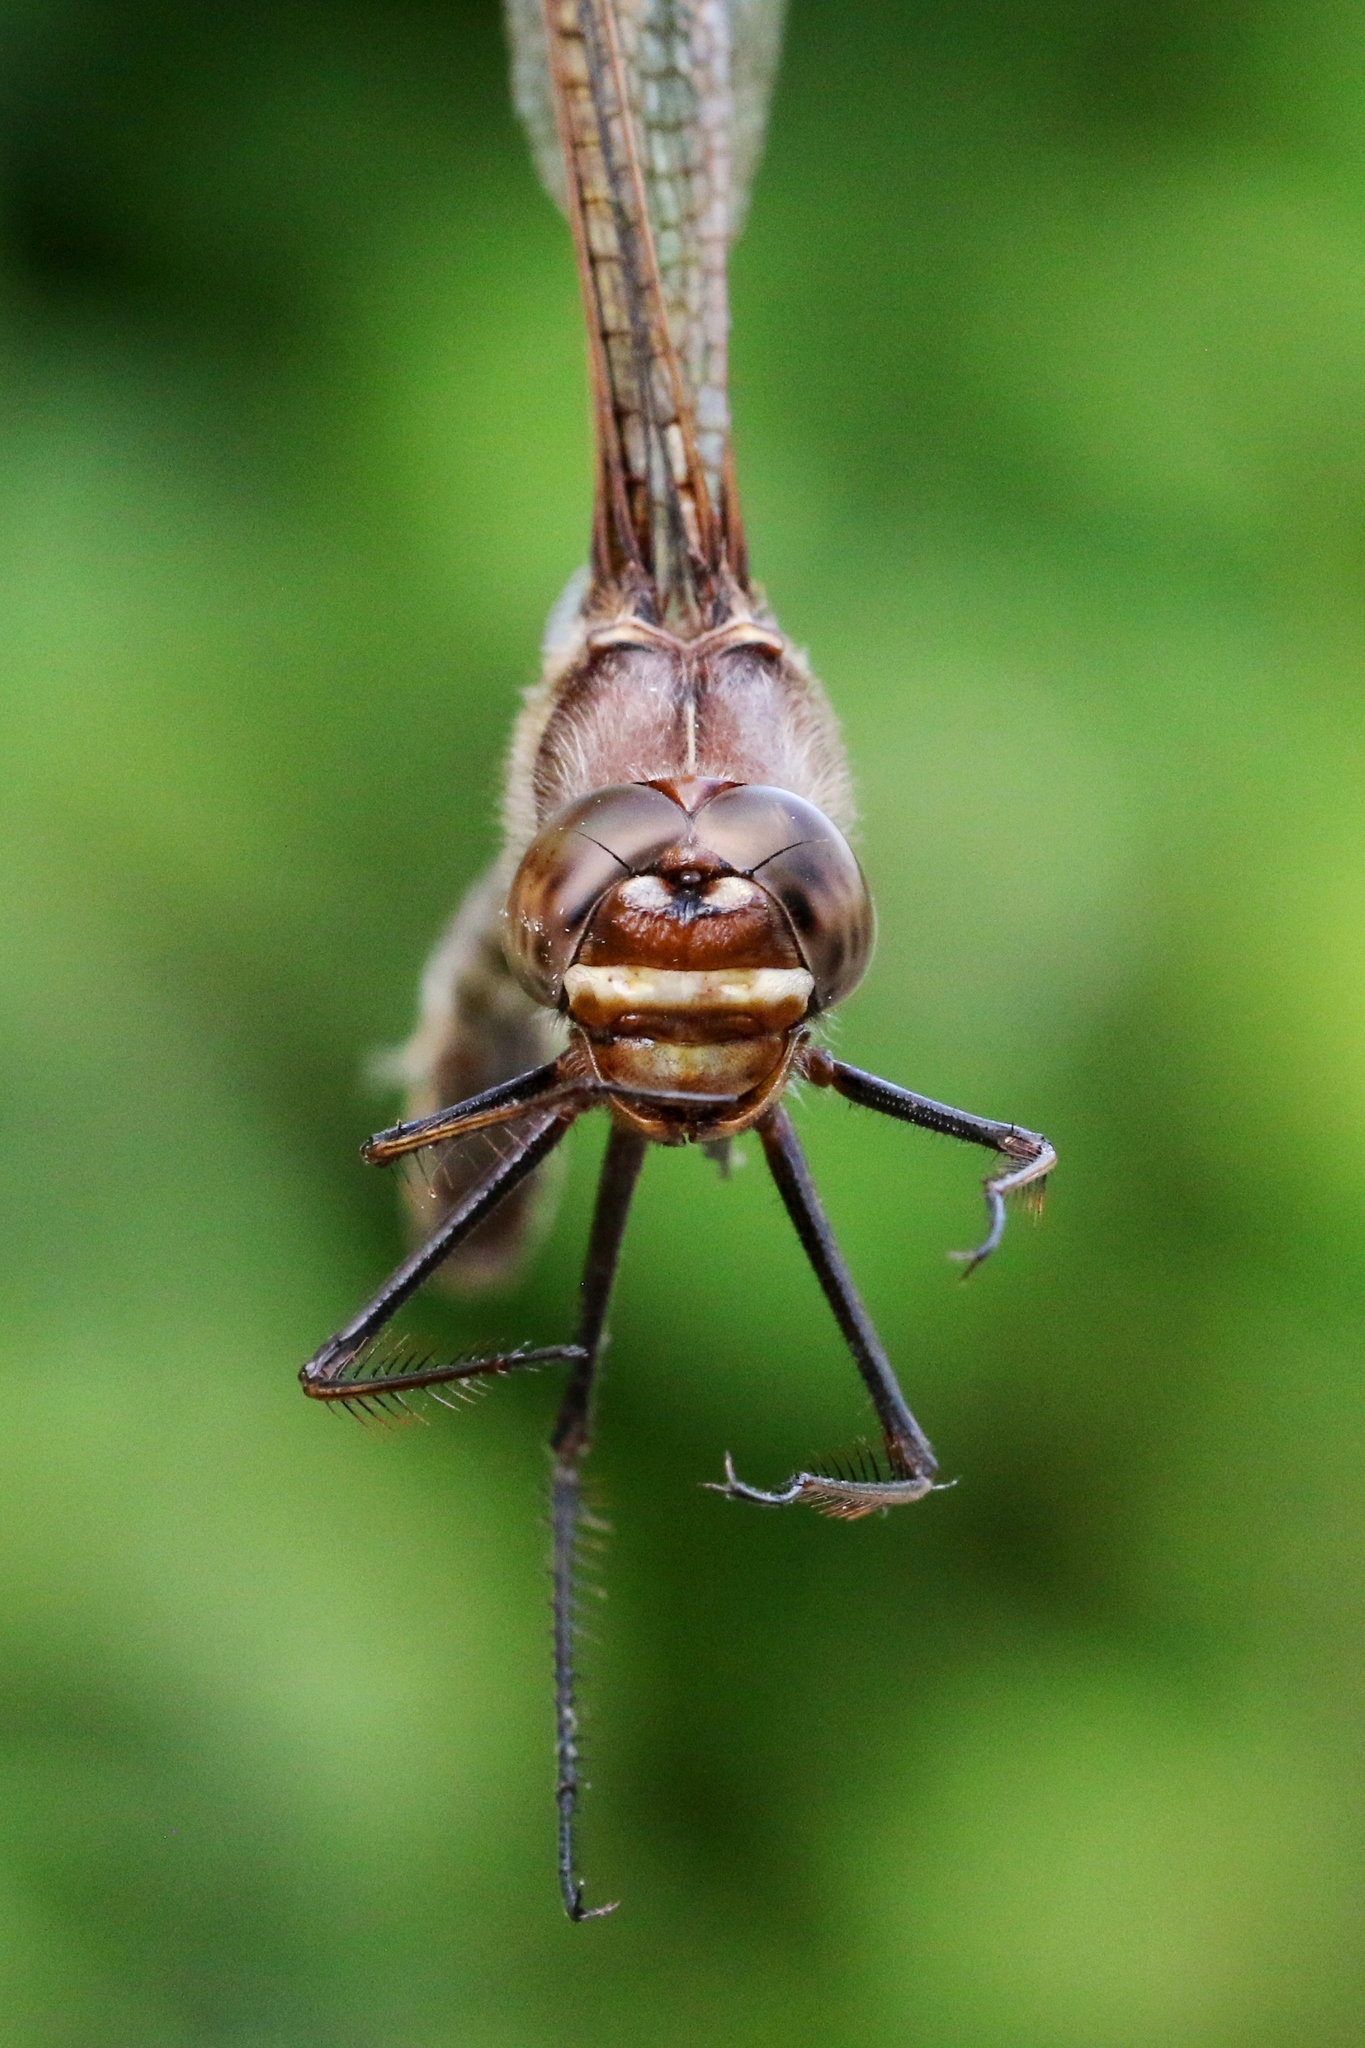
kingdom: Animalia
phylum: Arthropoda
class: Insecta
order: Odonata
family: Macromiidae
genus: Didymops
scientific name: Didymops transversa
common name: Stream cruiser
